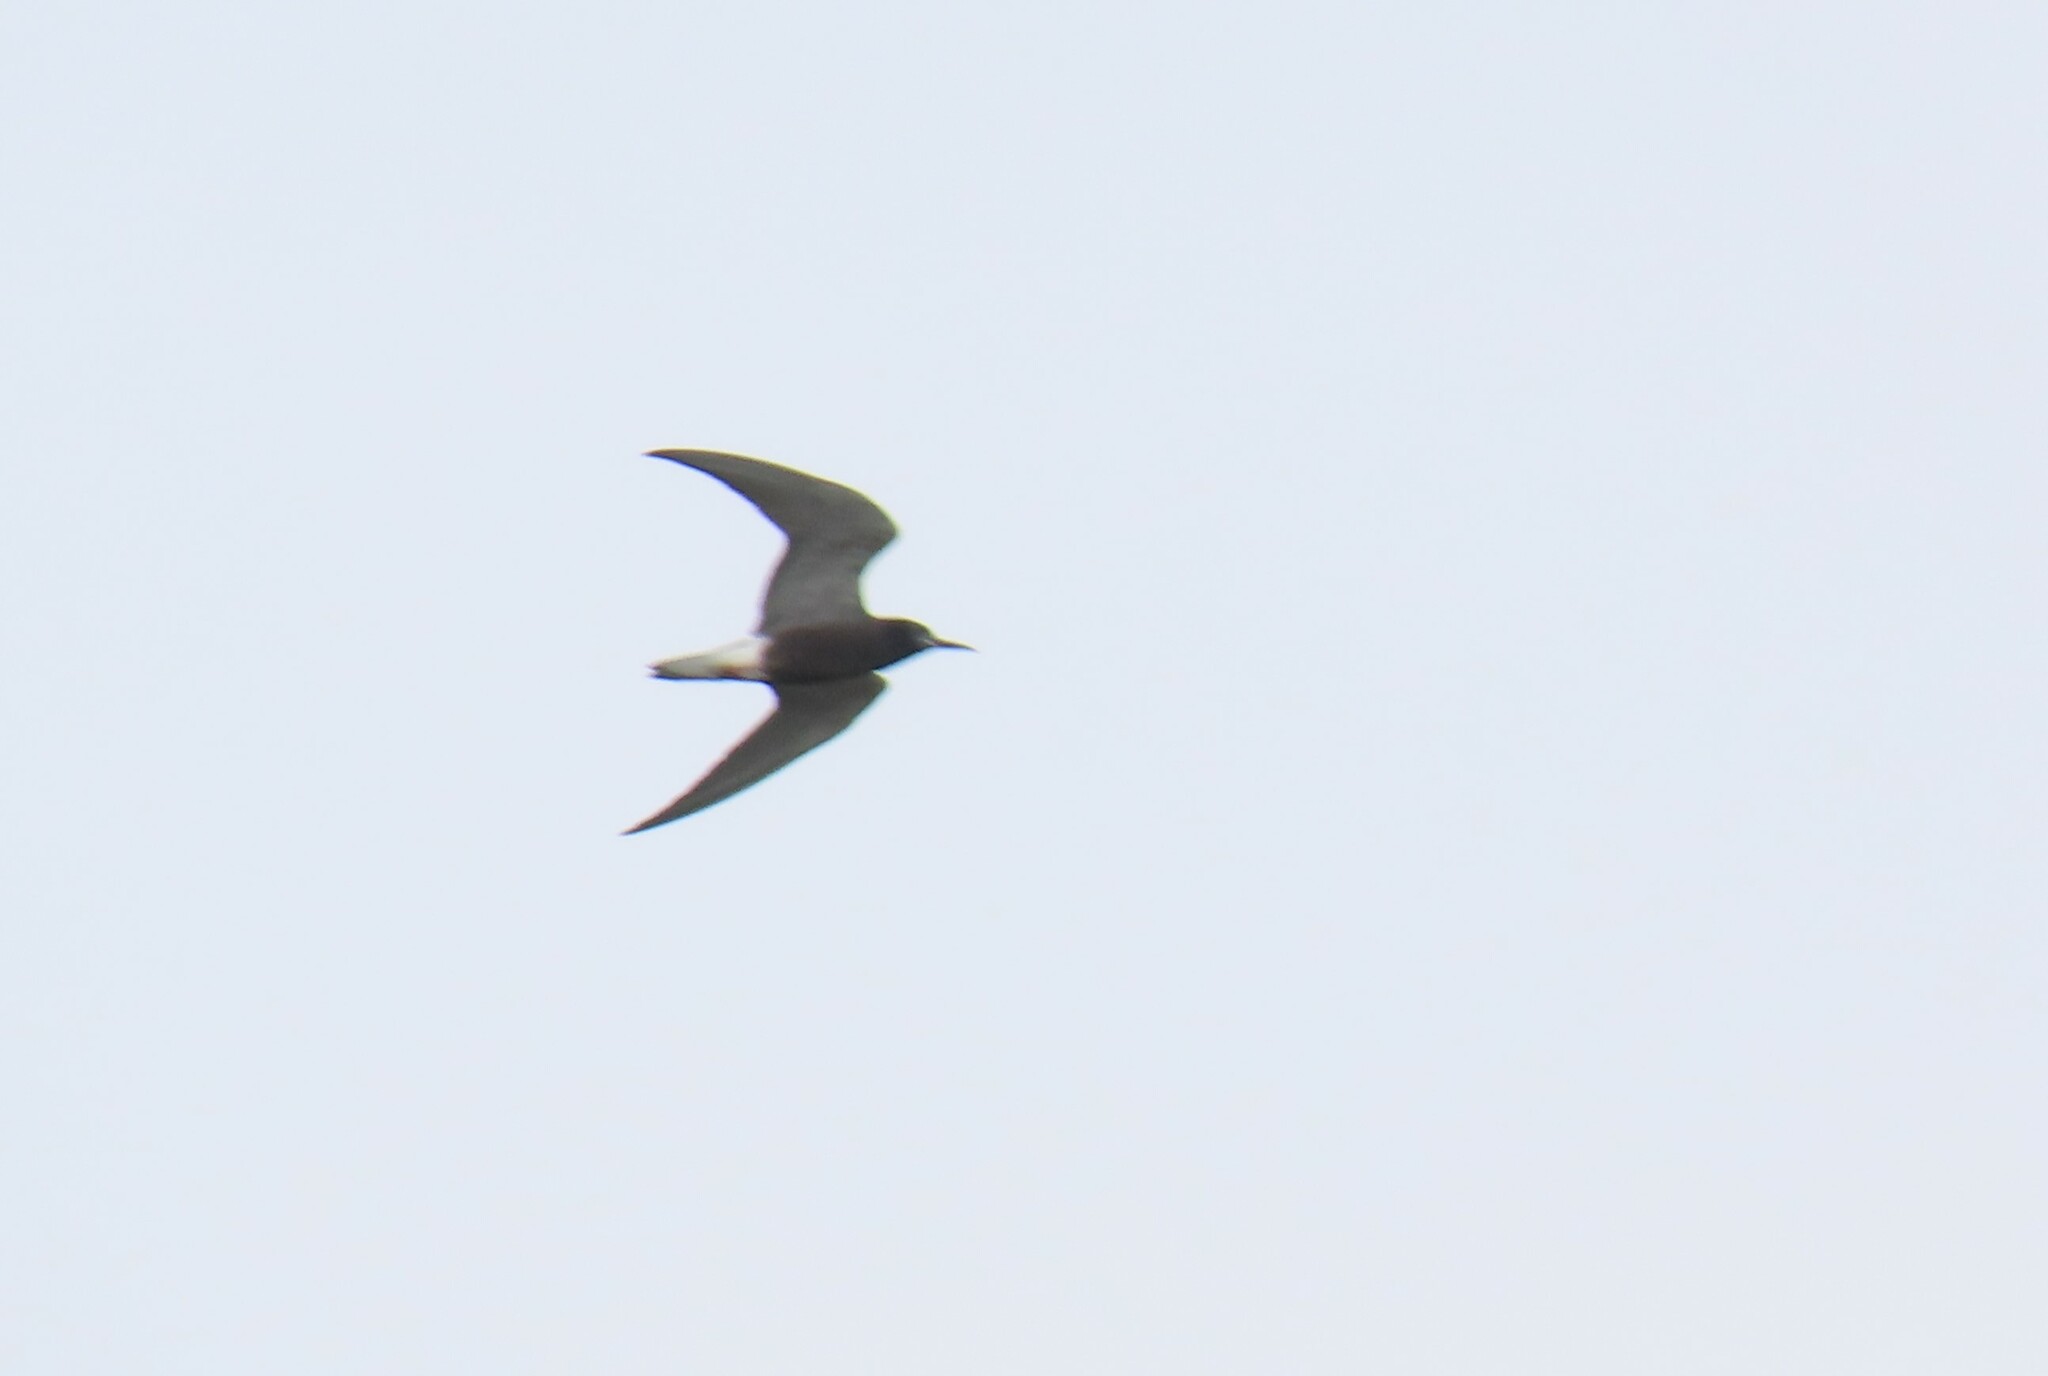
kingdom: Animalia
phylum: Chordata
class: Aves
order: Charadriiformes
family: Laridae
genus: Chlidonias
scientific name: Chlidonias niger
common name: Black tern
